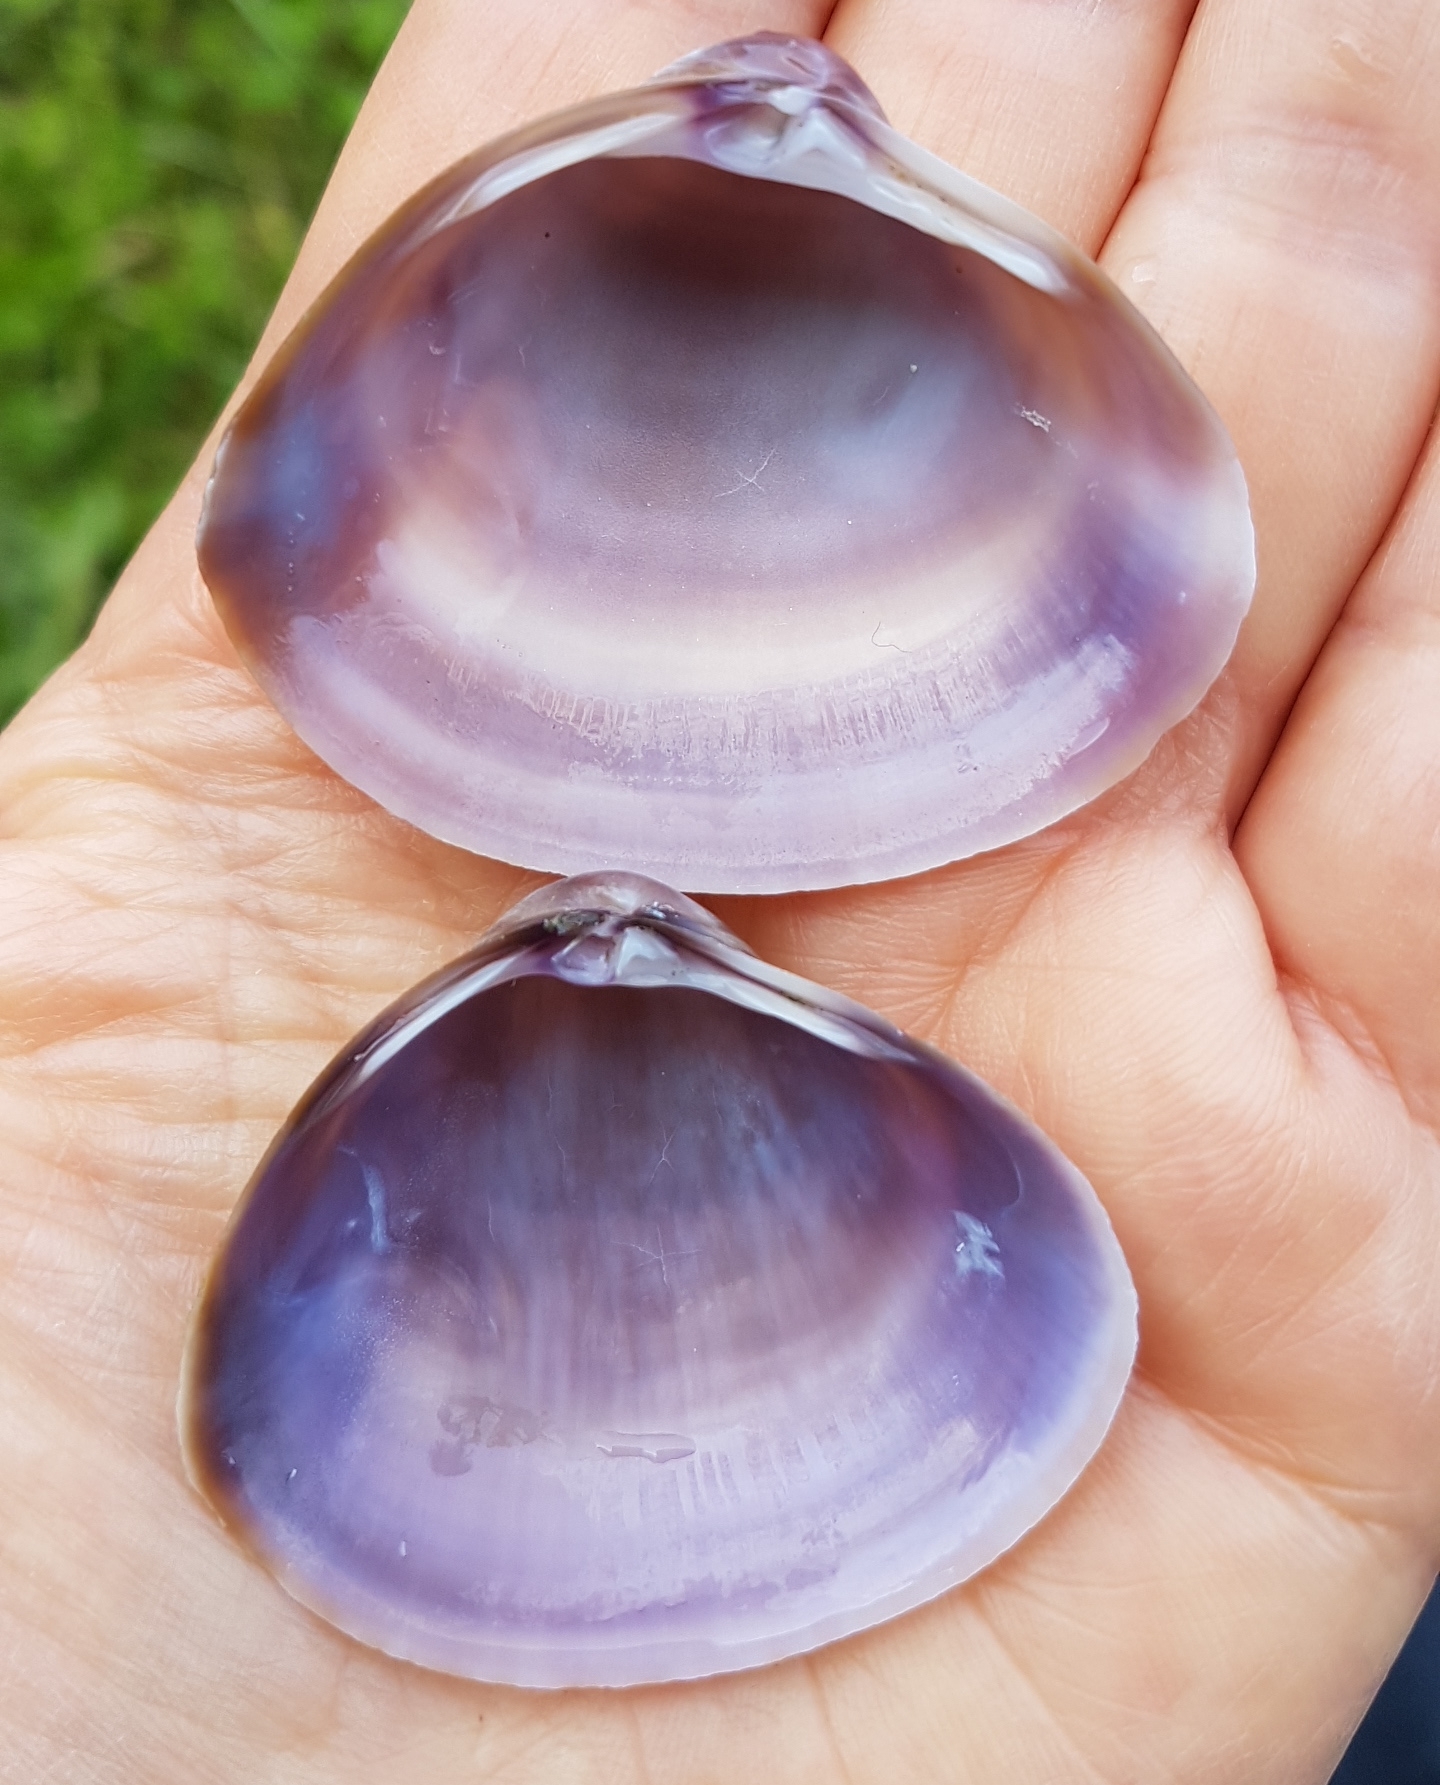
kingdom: Animalia
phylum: Mollusca
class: Bivalvia
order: Venerida
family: Mactridae
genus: Mactra
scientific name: Mactra stultorum
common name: Rayed trough shell
